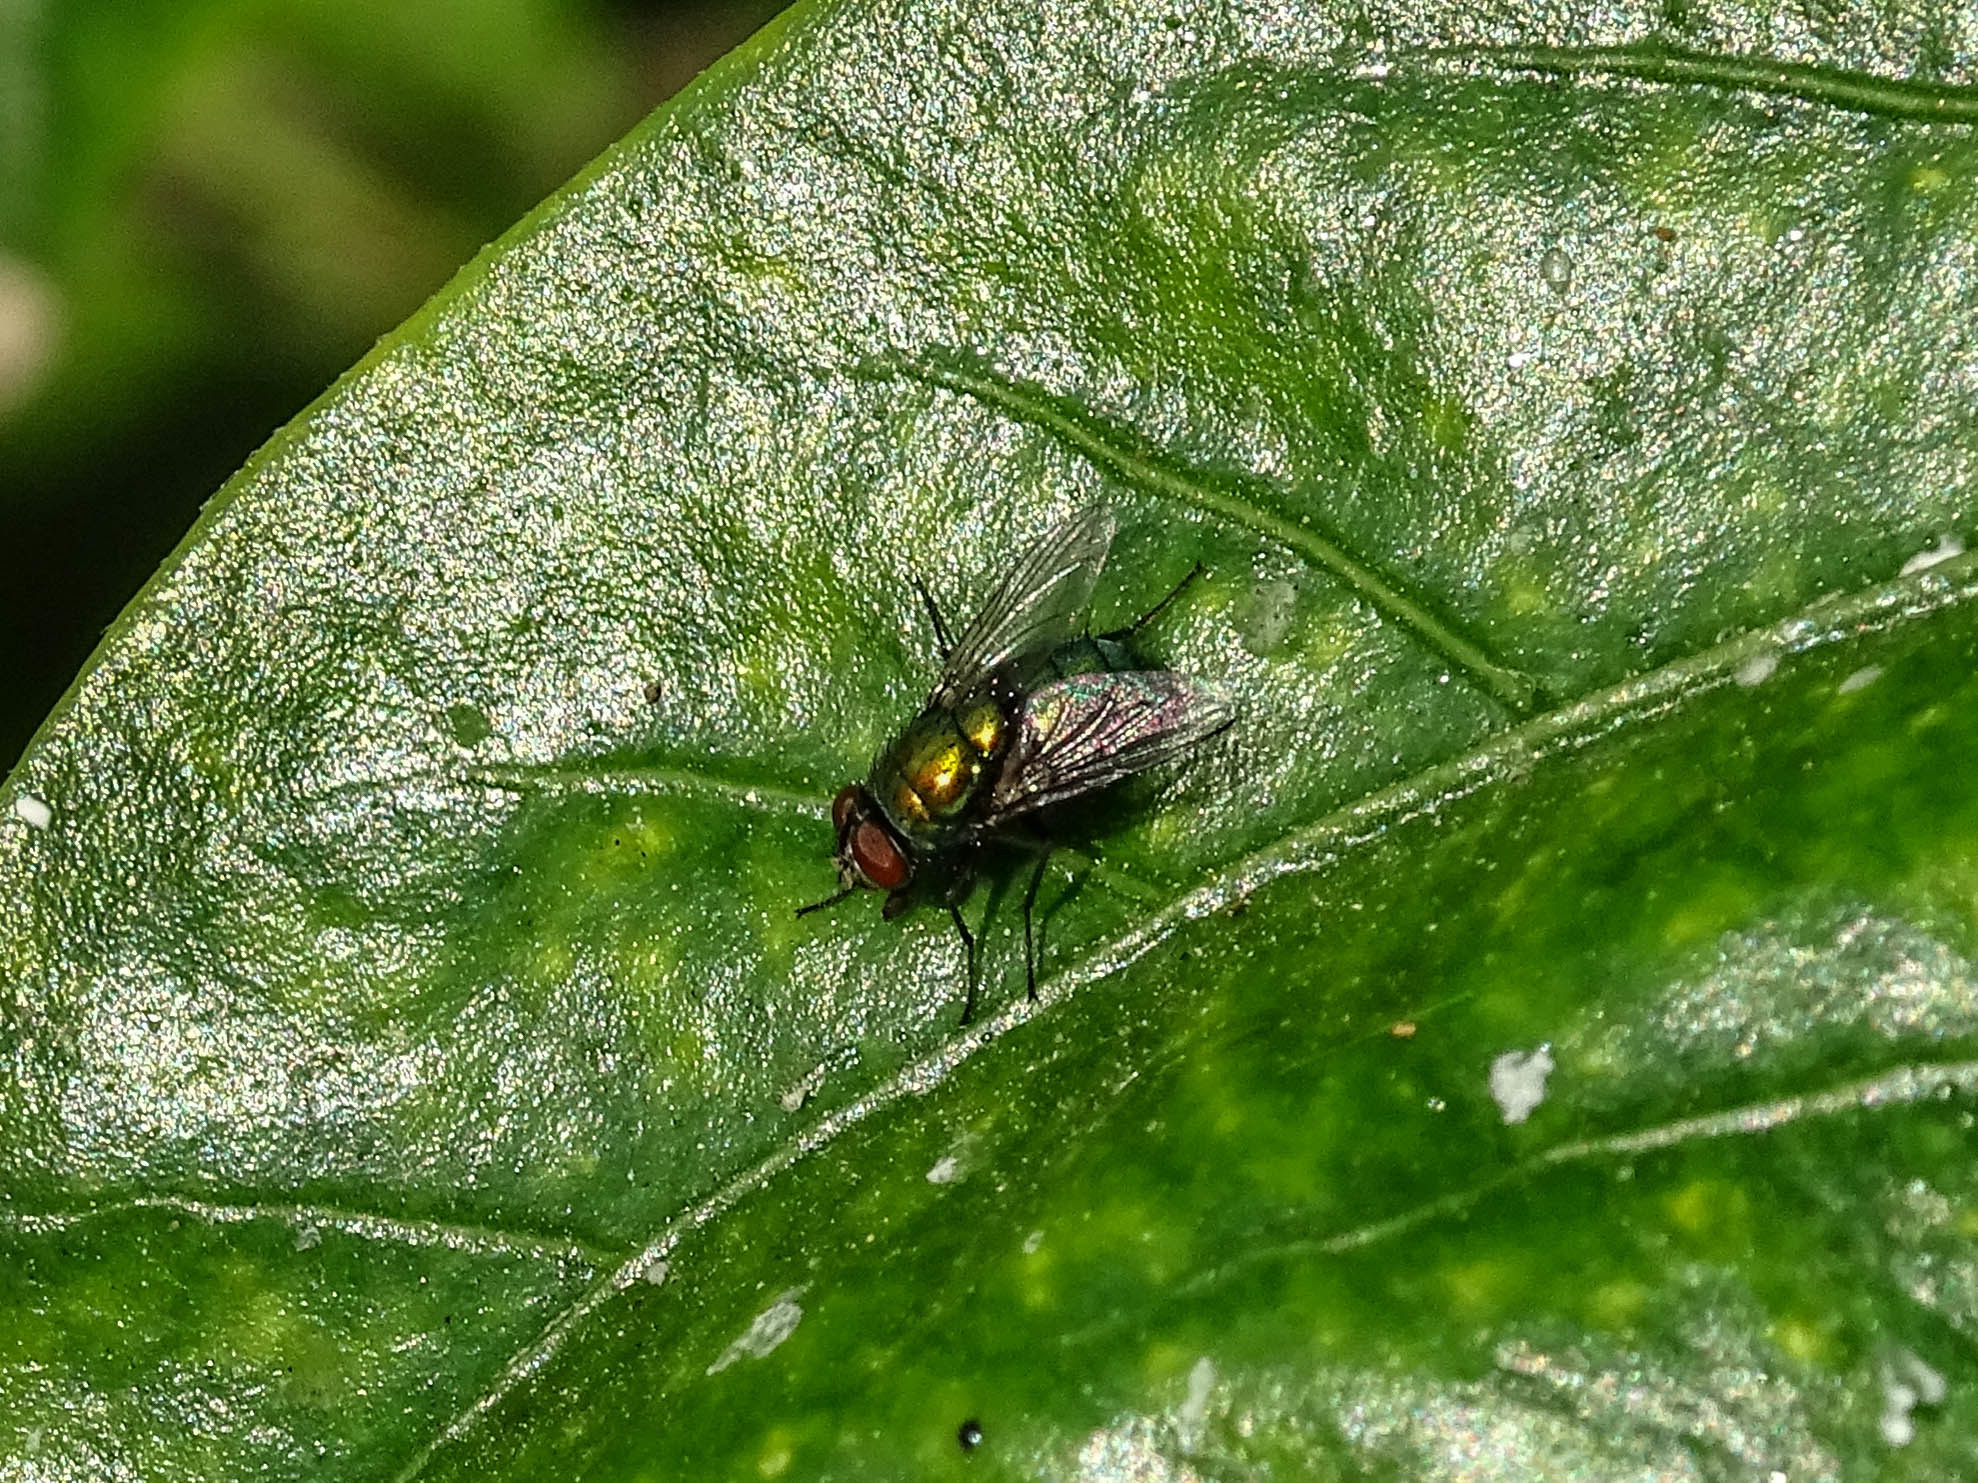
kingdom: Animalia
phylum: Arthropoda
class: Insecta
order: Diptera
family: Calliphoridae
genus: Lucilia
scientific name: Lucilia sericata
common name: Blow fly
